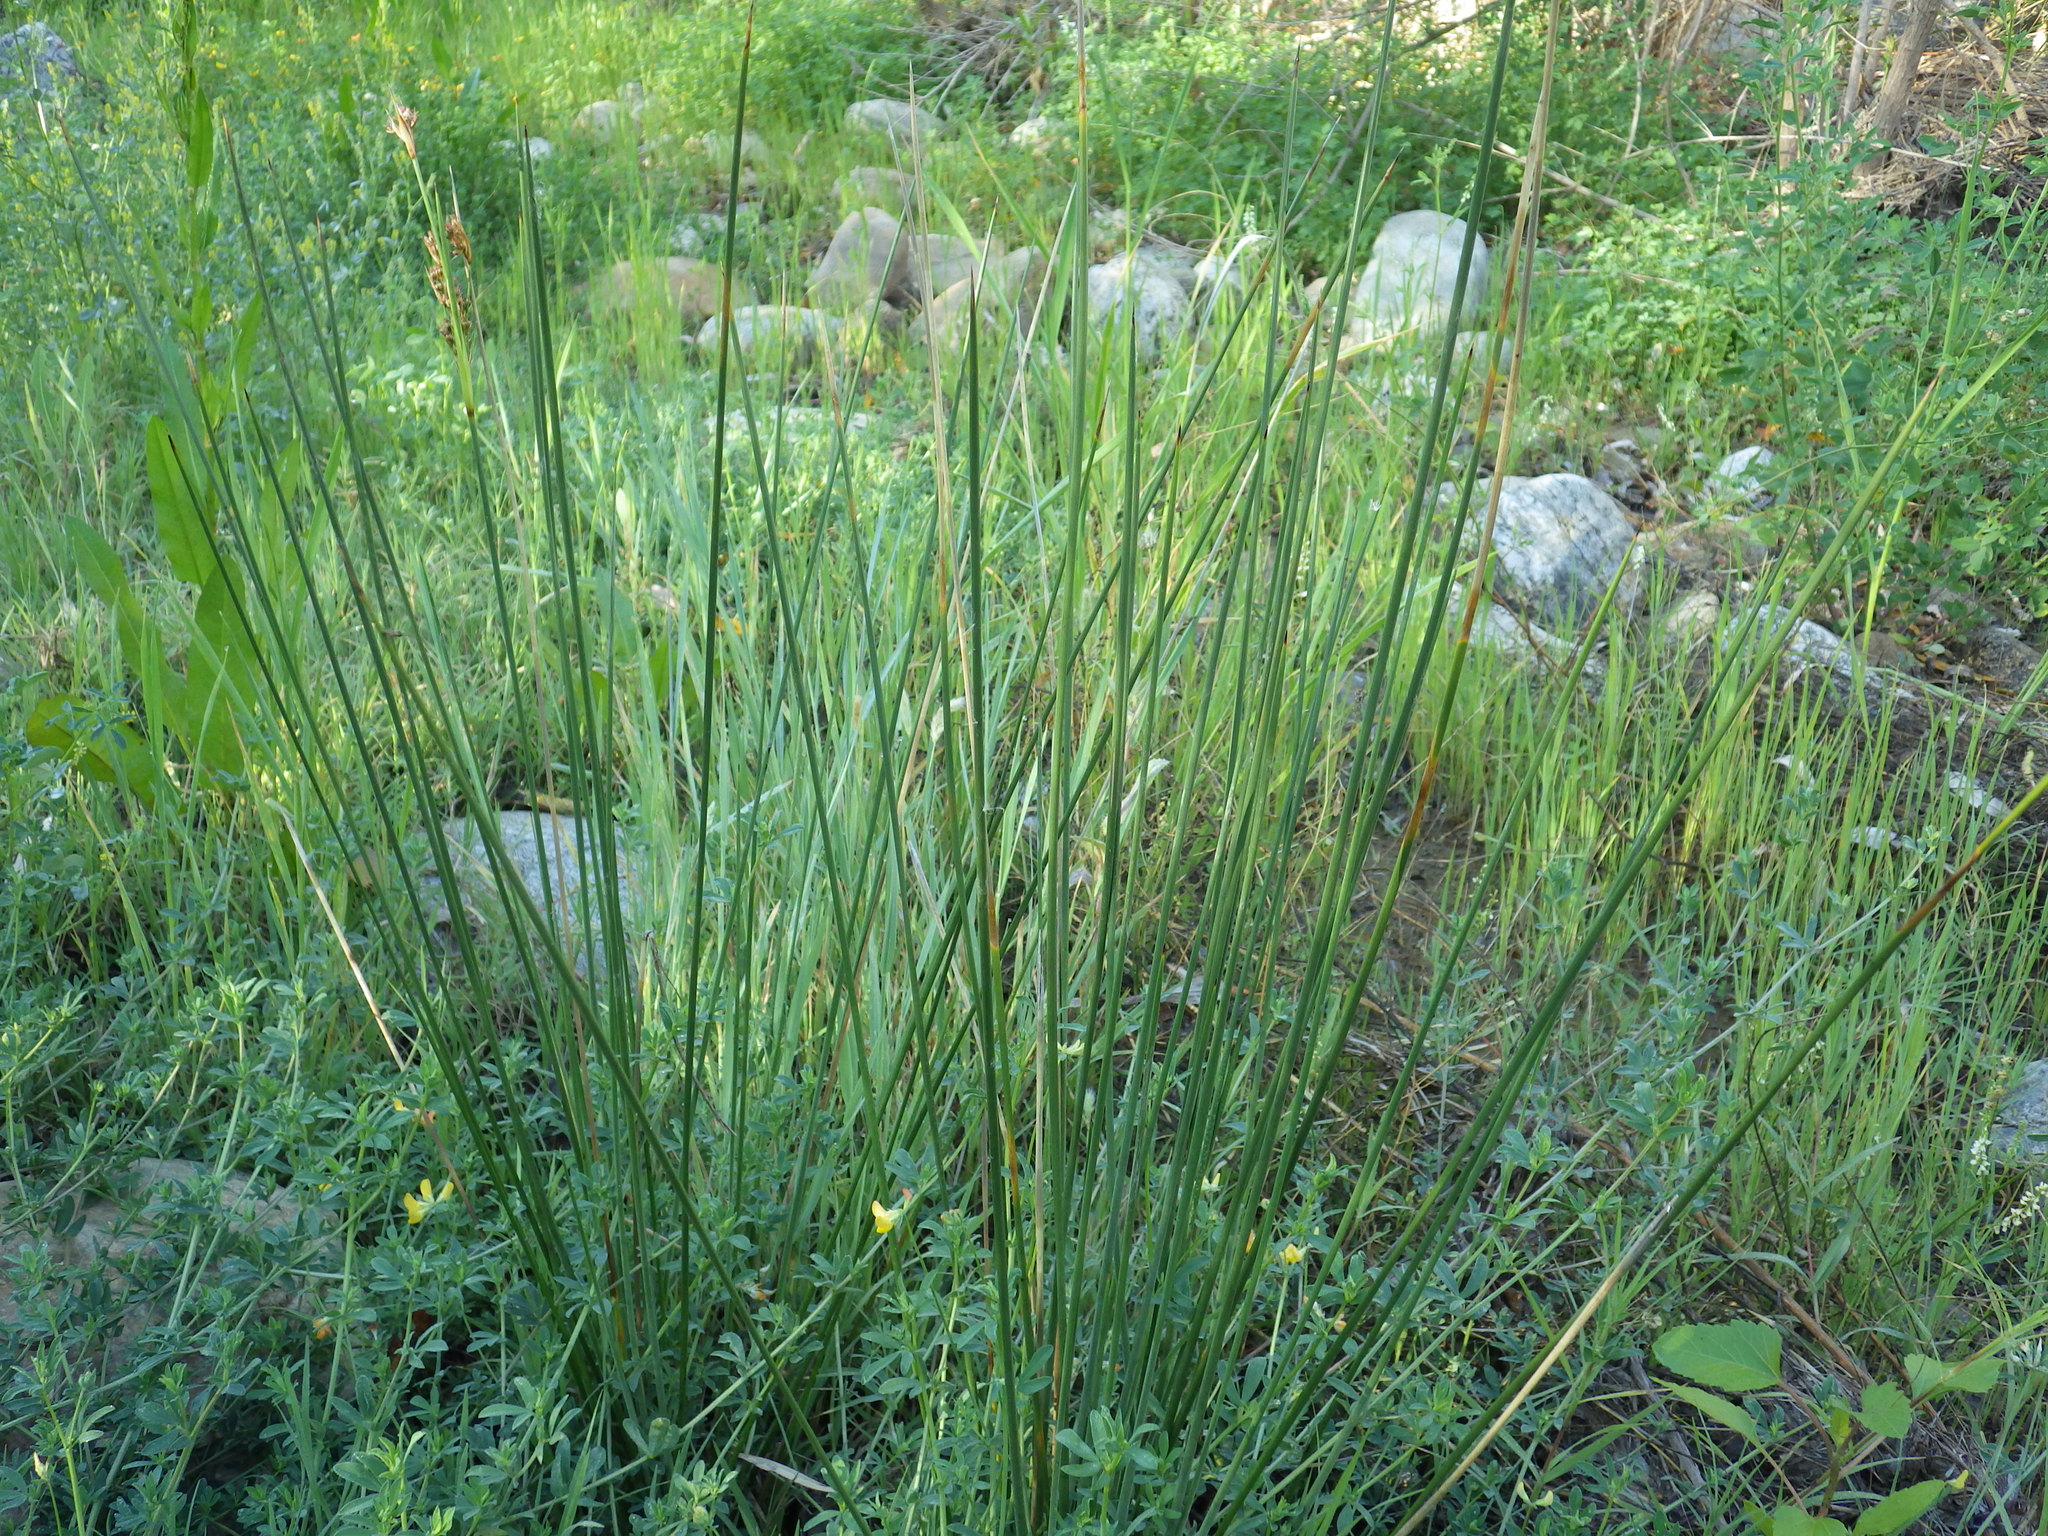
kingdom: Plantae
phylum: Tracheophyta
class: Liliopsida
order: Poales
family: Juncaceae
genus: Juncus
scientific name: Juncus balticus
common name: Baltic rush
